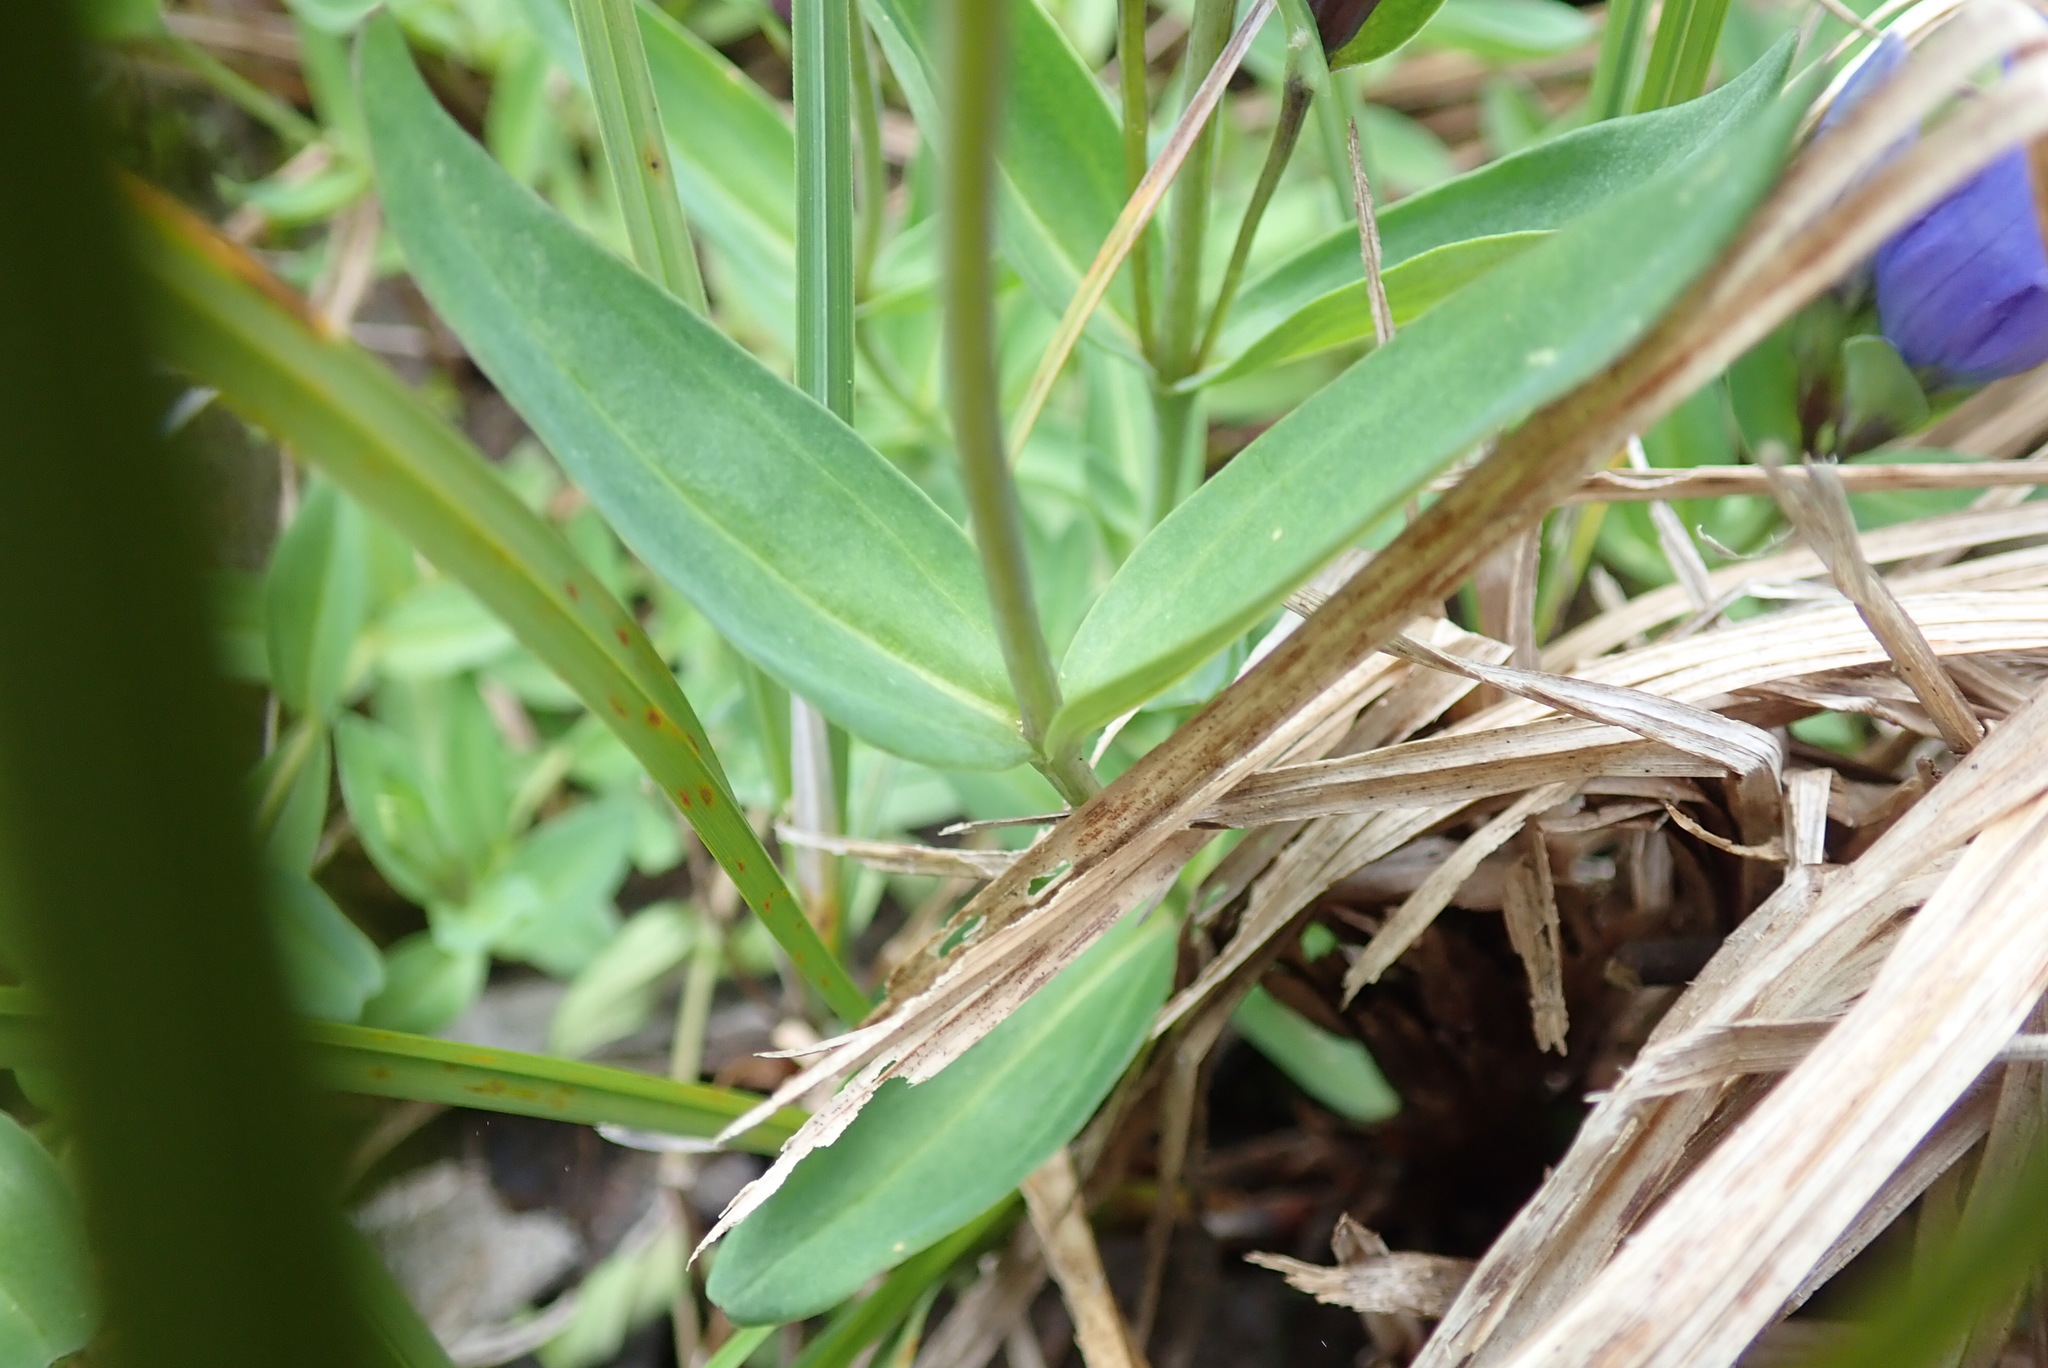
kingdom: Plantae
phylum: Tracheophyta
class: Magnoliopsida
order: Gentianales
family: Gentianaceae
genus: Gentiana
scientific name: Gentiana sceptrum
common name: Pacific gentian
